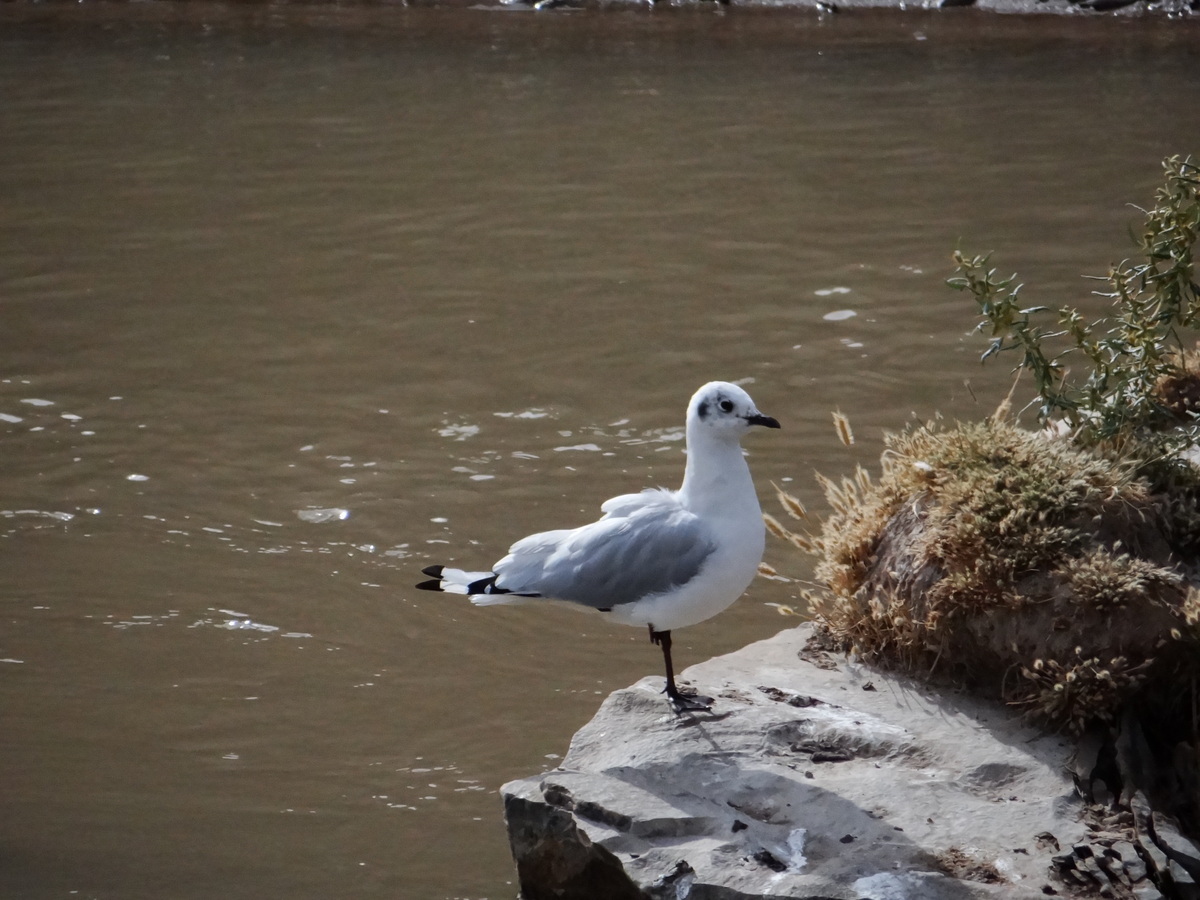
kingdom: Animalia
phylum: Chordata
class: Aves
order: Charadriiformes
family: Laridae
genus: Chroicocephalus
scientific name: Chroicocephalus serranus
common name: Andean gull
